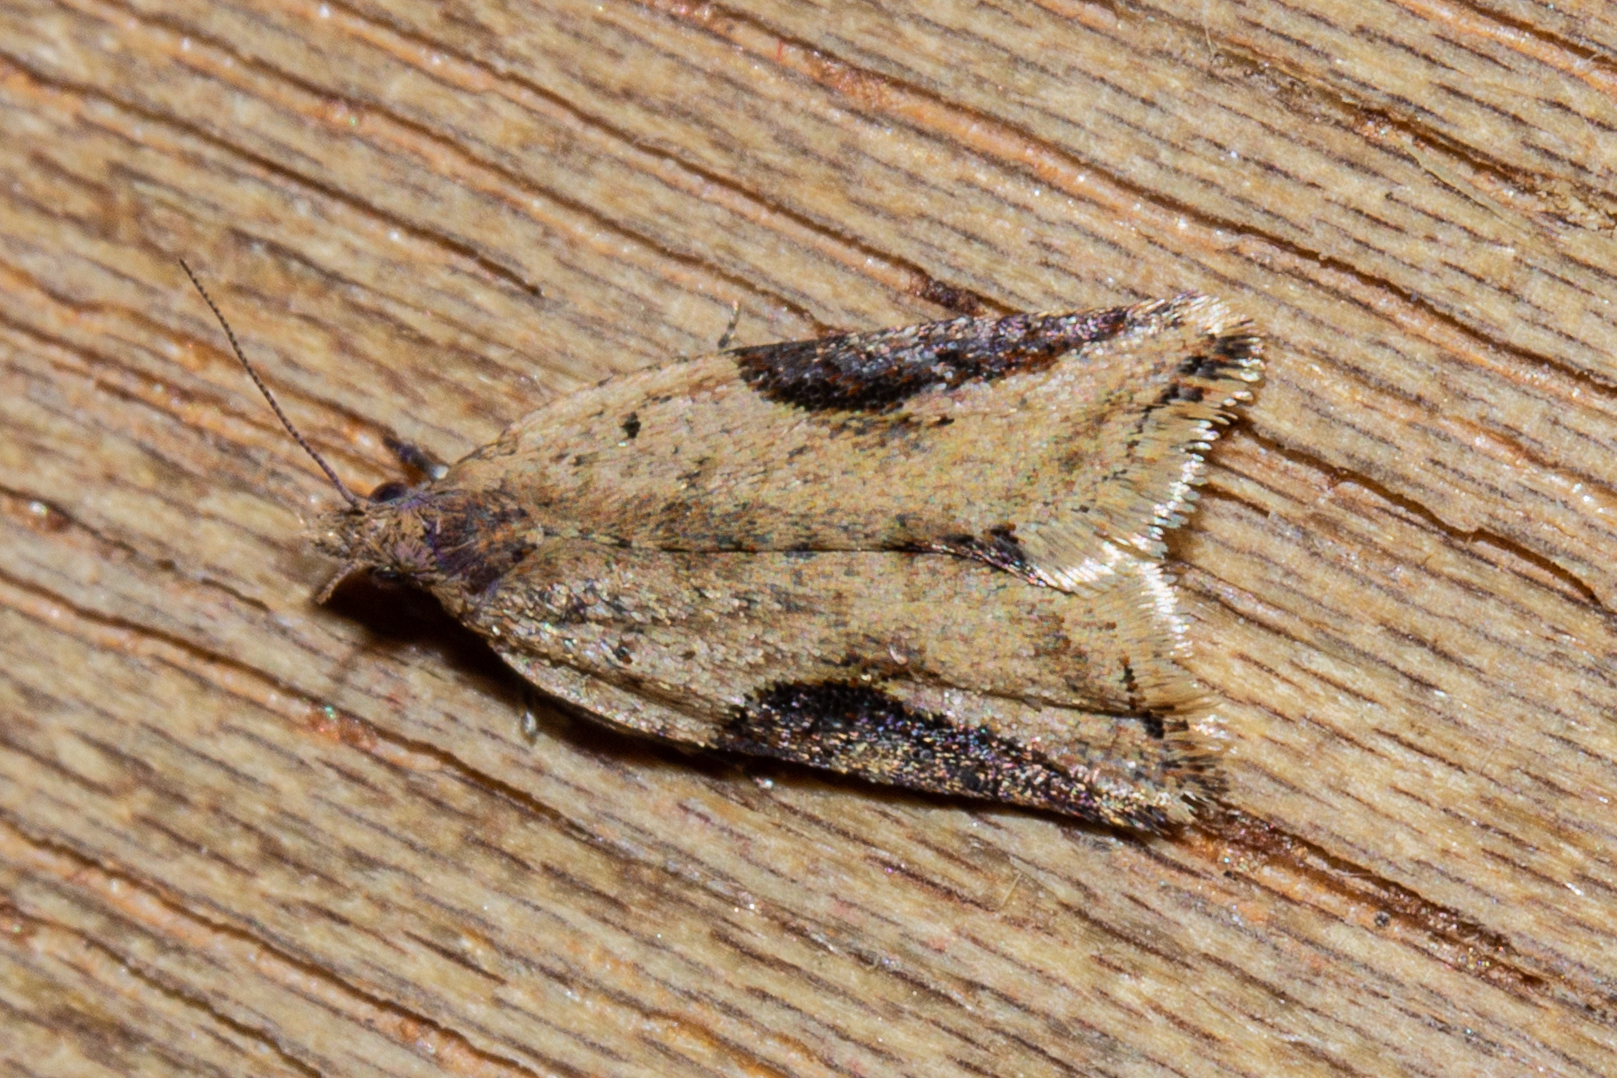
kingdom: Animalia
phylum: Arthropoda
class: Insecta
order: Lepidoptera
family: Tortricidae
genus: Capua
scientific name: Capua semiferana
